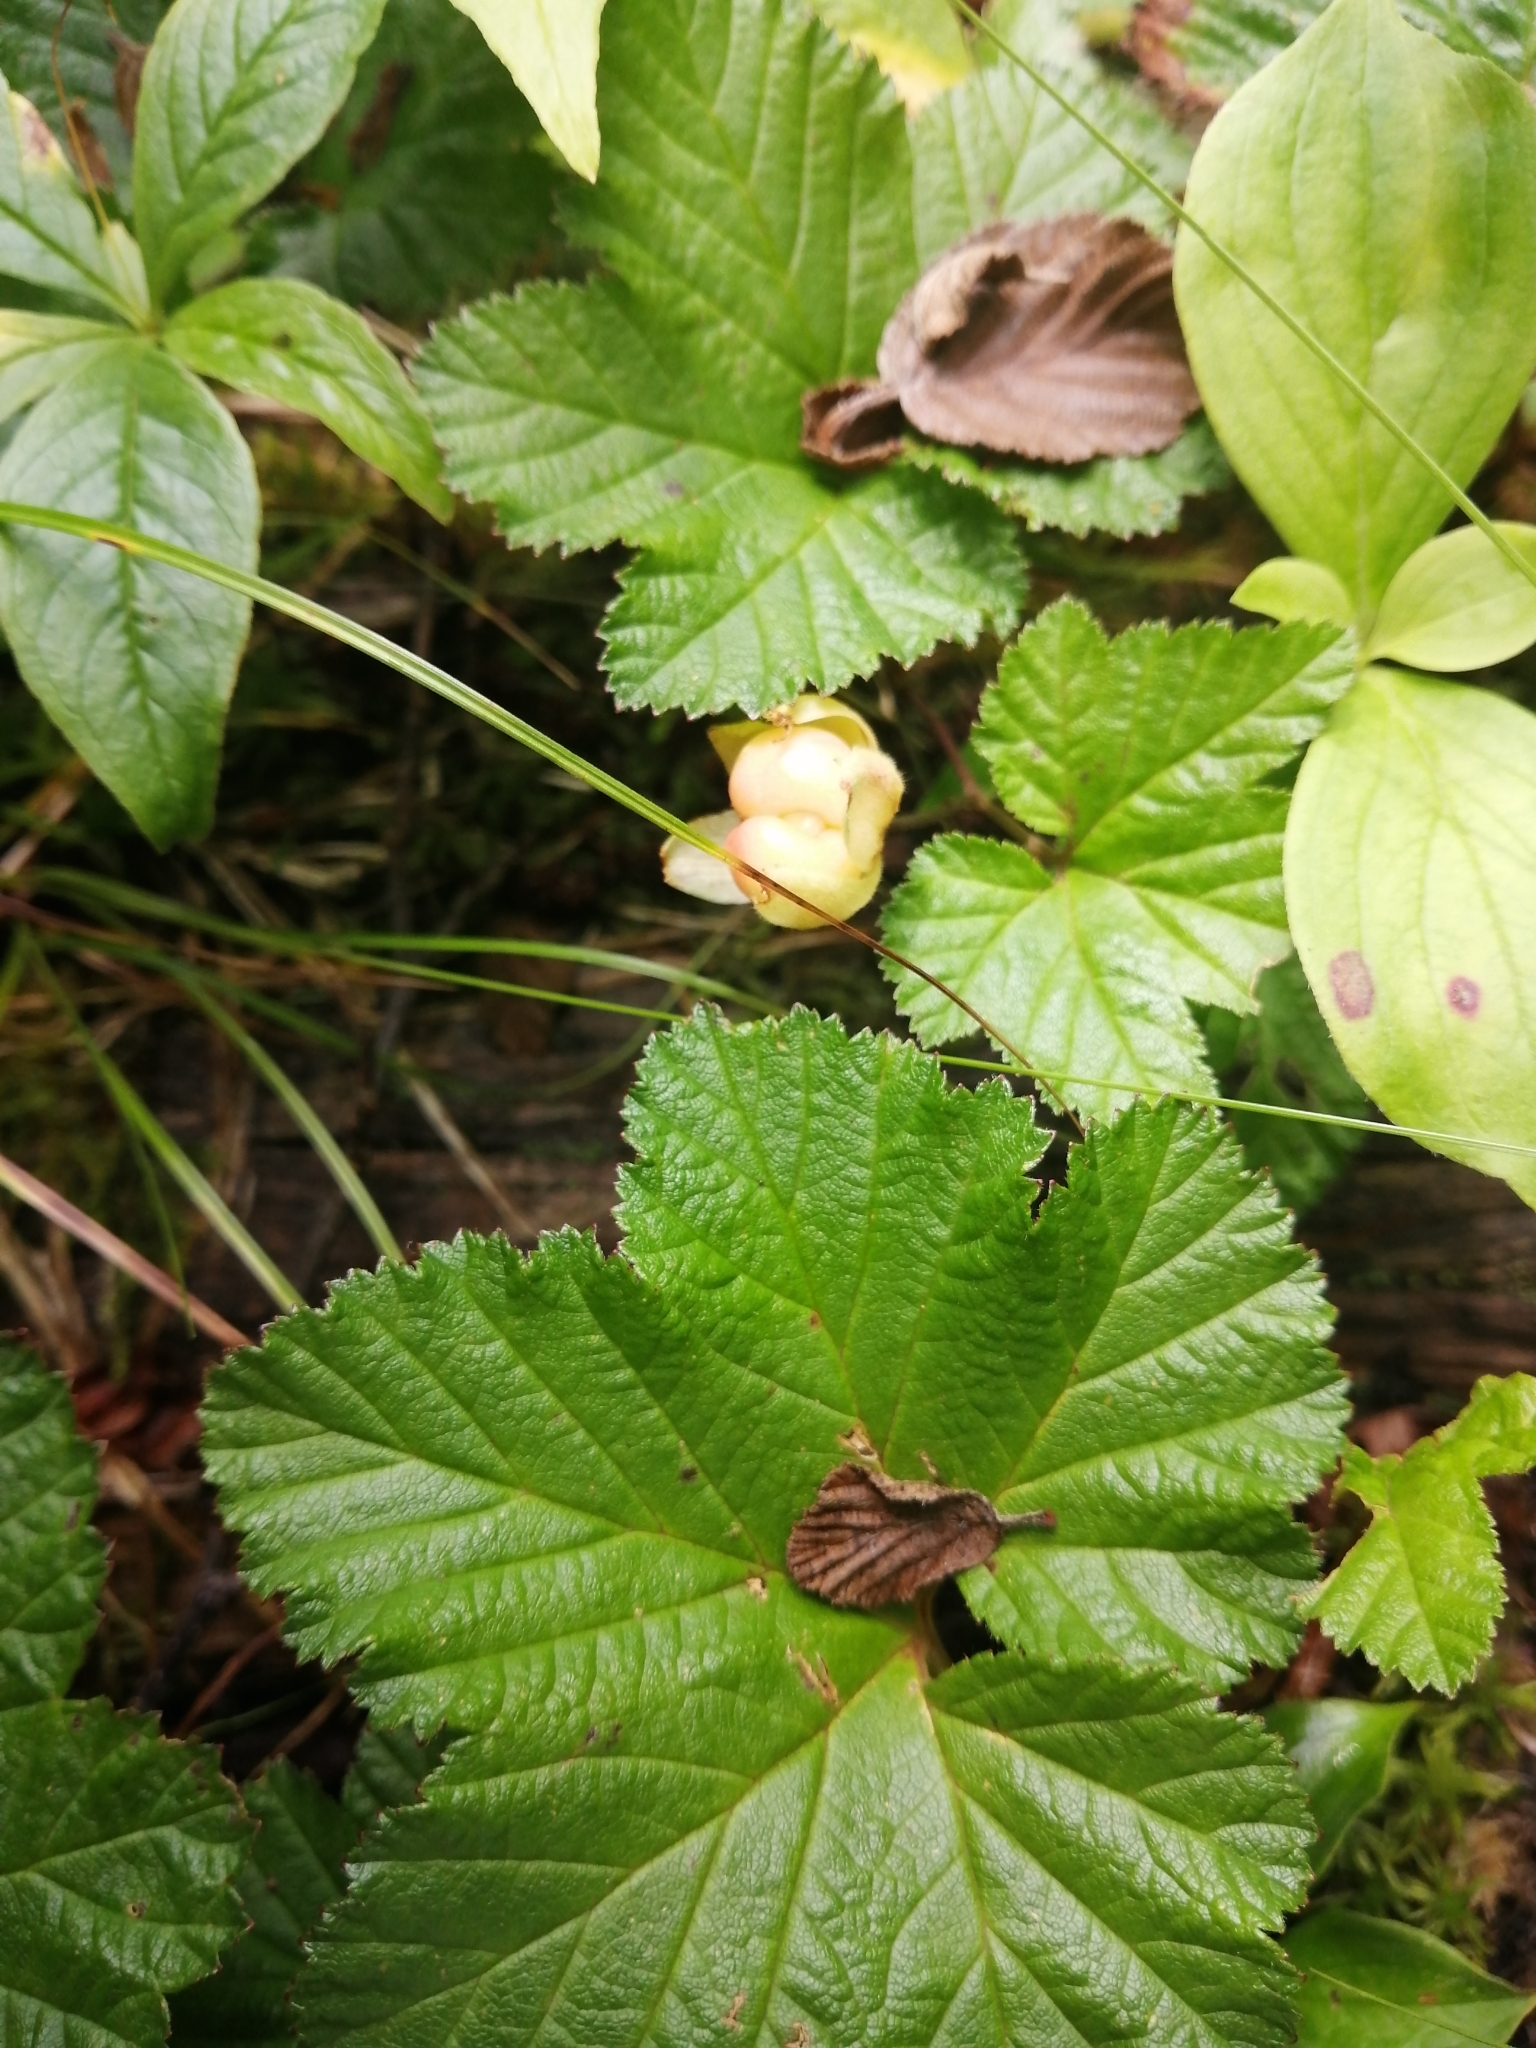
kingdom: Plantae
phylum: Tracheophyta
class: Magnoliopsida
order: Rosales
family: Rosaceae
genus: Rubus
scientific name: Rubus chamaemorus
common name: Cloudberry
